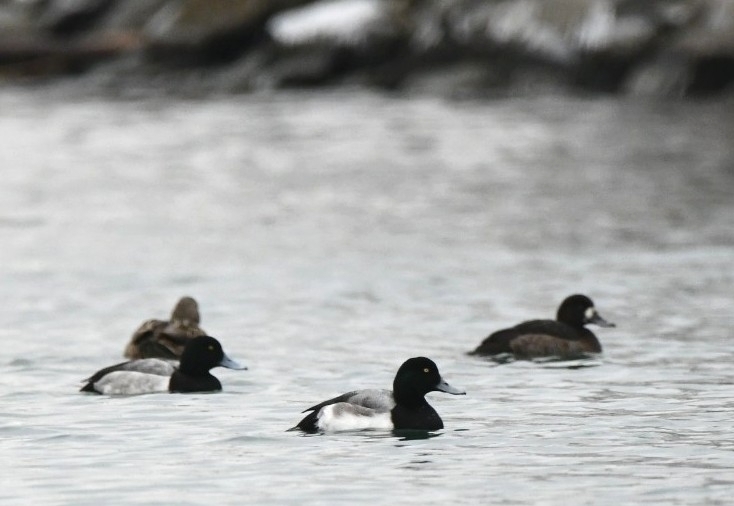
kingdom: Animalia
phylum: Chordata
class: Aves
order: Anseriformes
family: Anatidae
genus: Aythya
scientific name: Aythya marila
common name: Greater scaup
